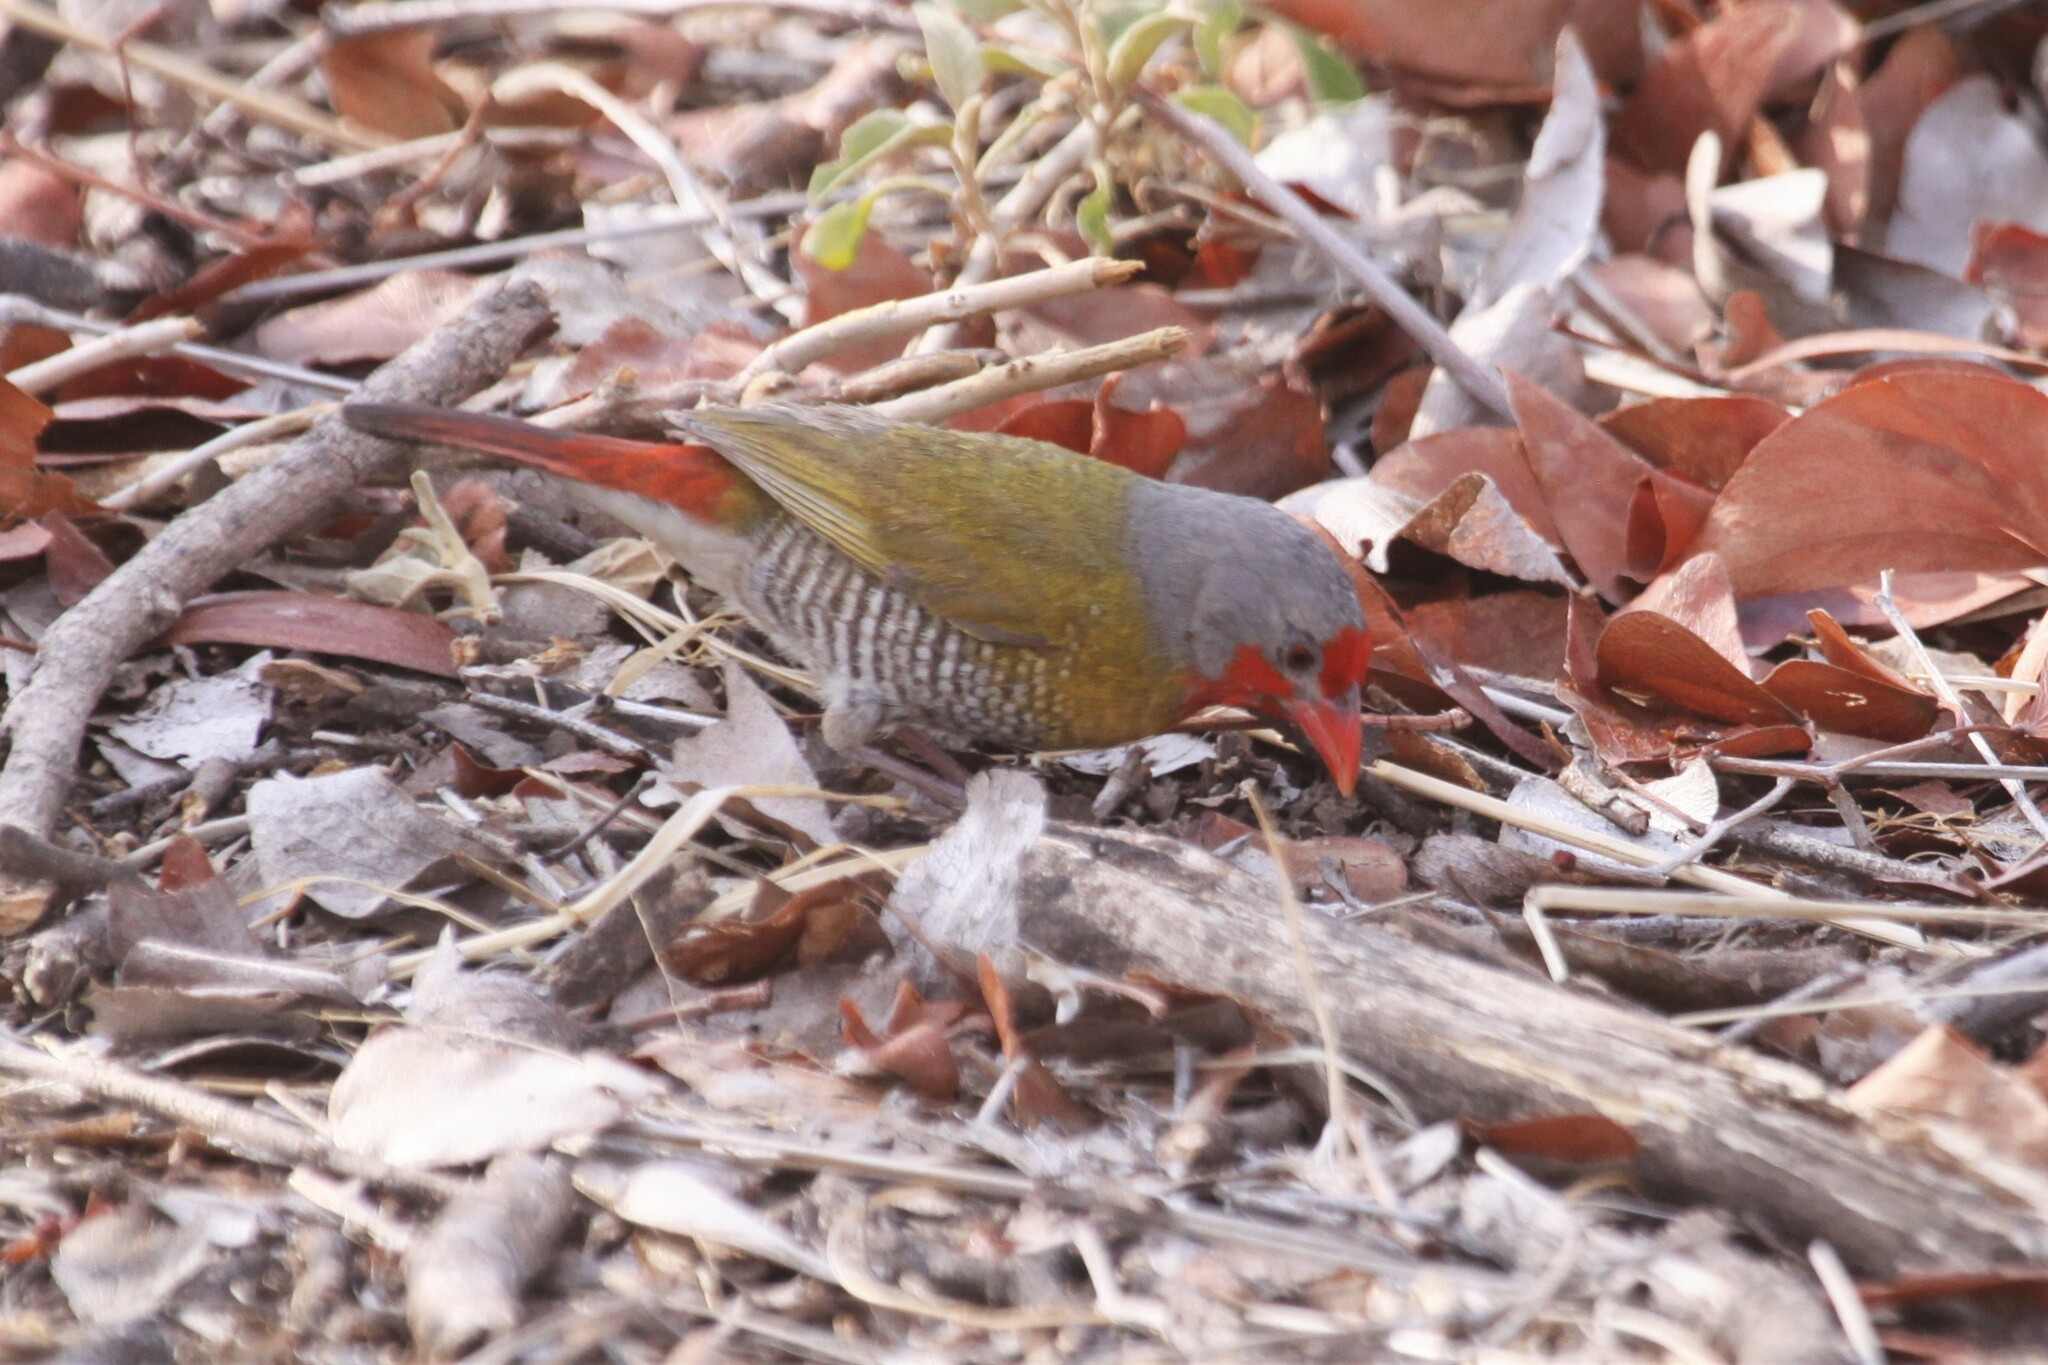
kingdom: Animalia
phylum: Chordata
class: Aves
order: Passeriformes
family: Estrildidae
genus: Pytilia
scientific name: Pytilia melba
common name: Green-winged pytilia
